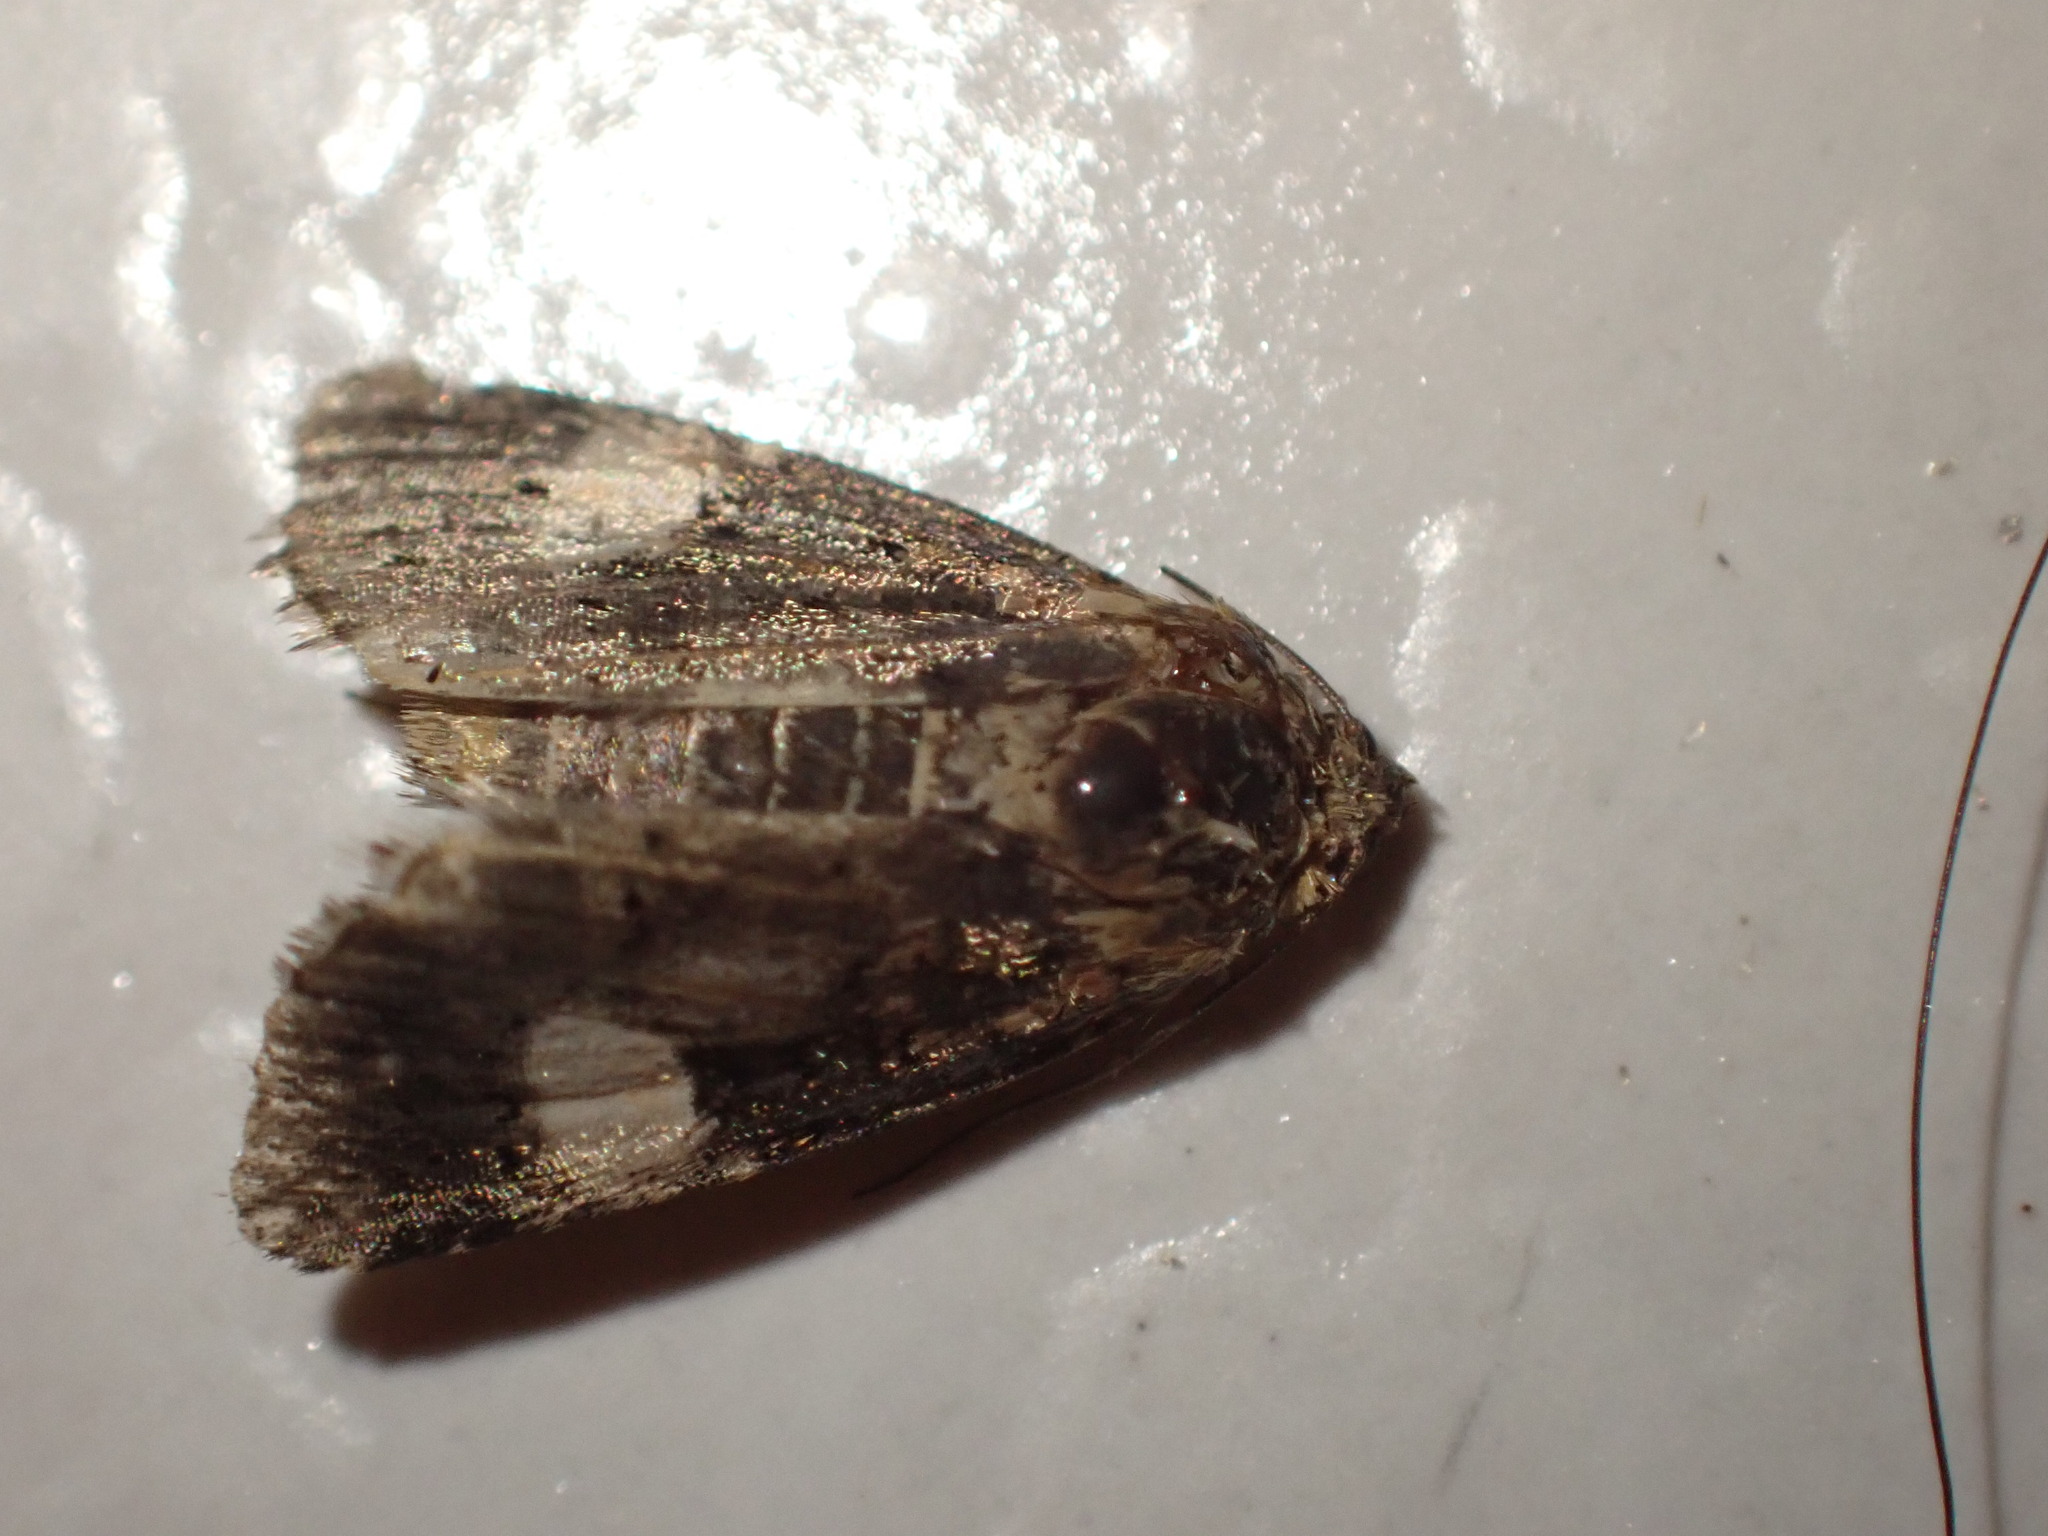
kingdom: Animalia
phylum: Arthropoda
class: Insecta
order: Lepidoptera
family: Erebidae
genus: Tyta
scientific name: Tyta luctuosa
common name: Four-spotted
